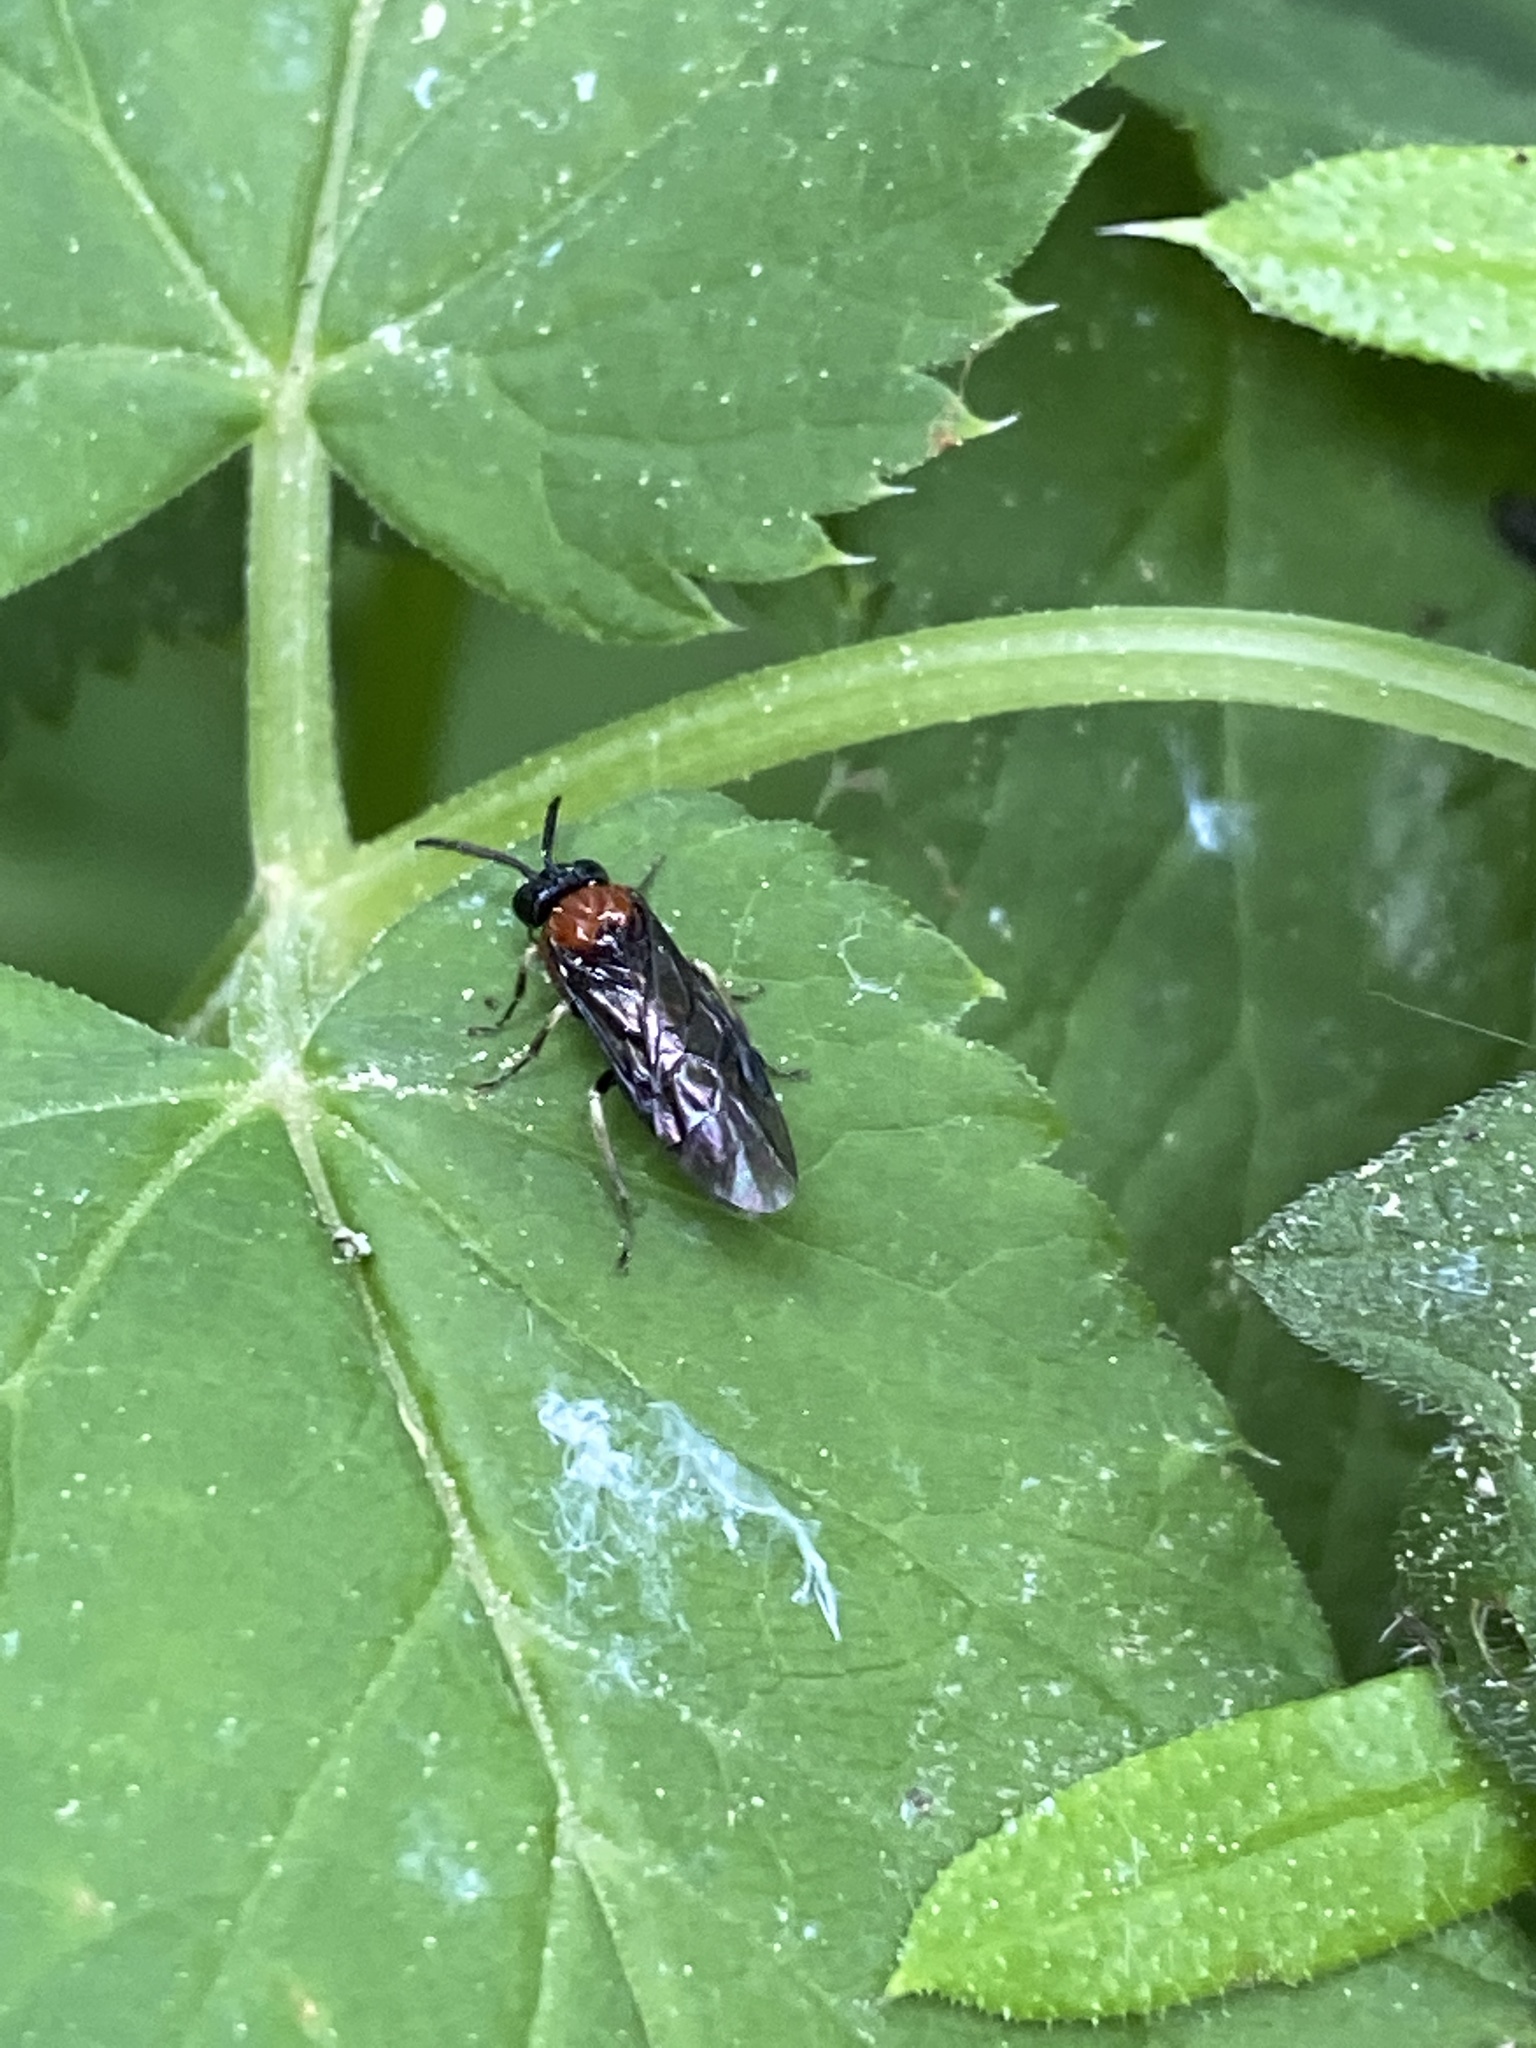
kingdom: Animalia
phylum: Arthropoda
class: Insecta
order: Hymenoptera
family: Tenthredinidae
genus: Eutomostethus
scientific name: Eutomostethus ephippium
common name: Tenthredid wasp
